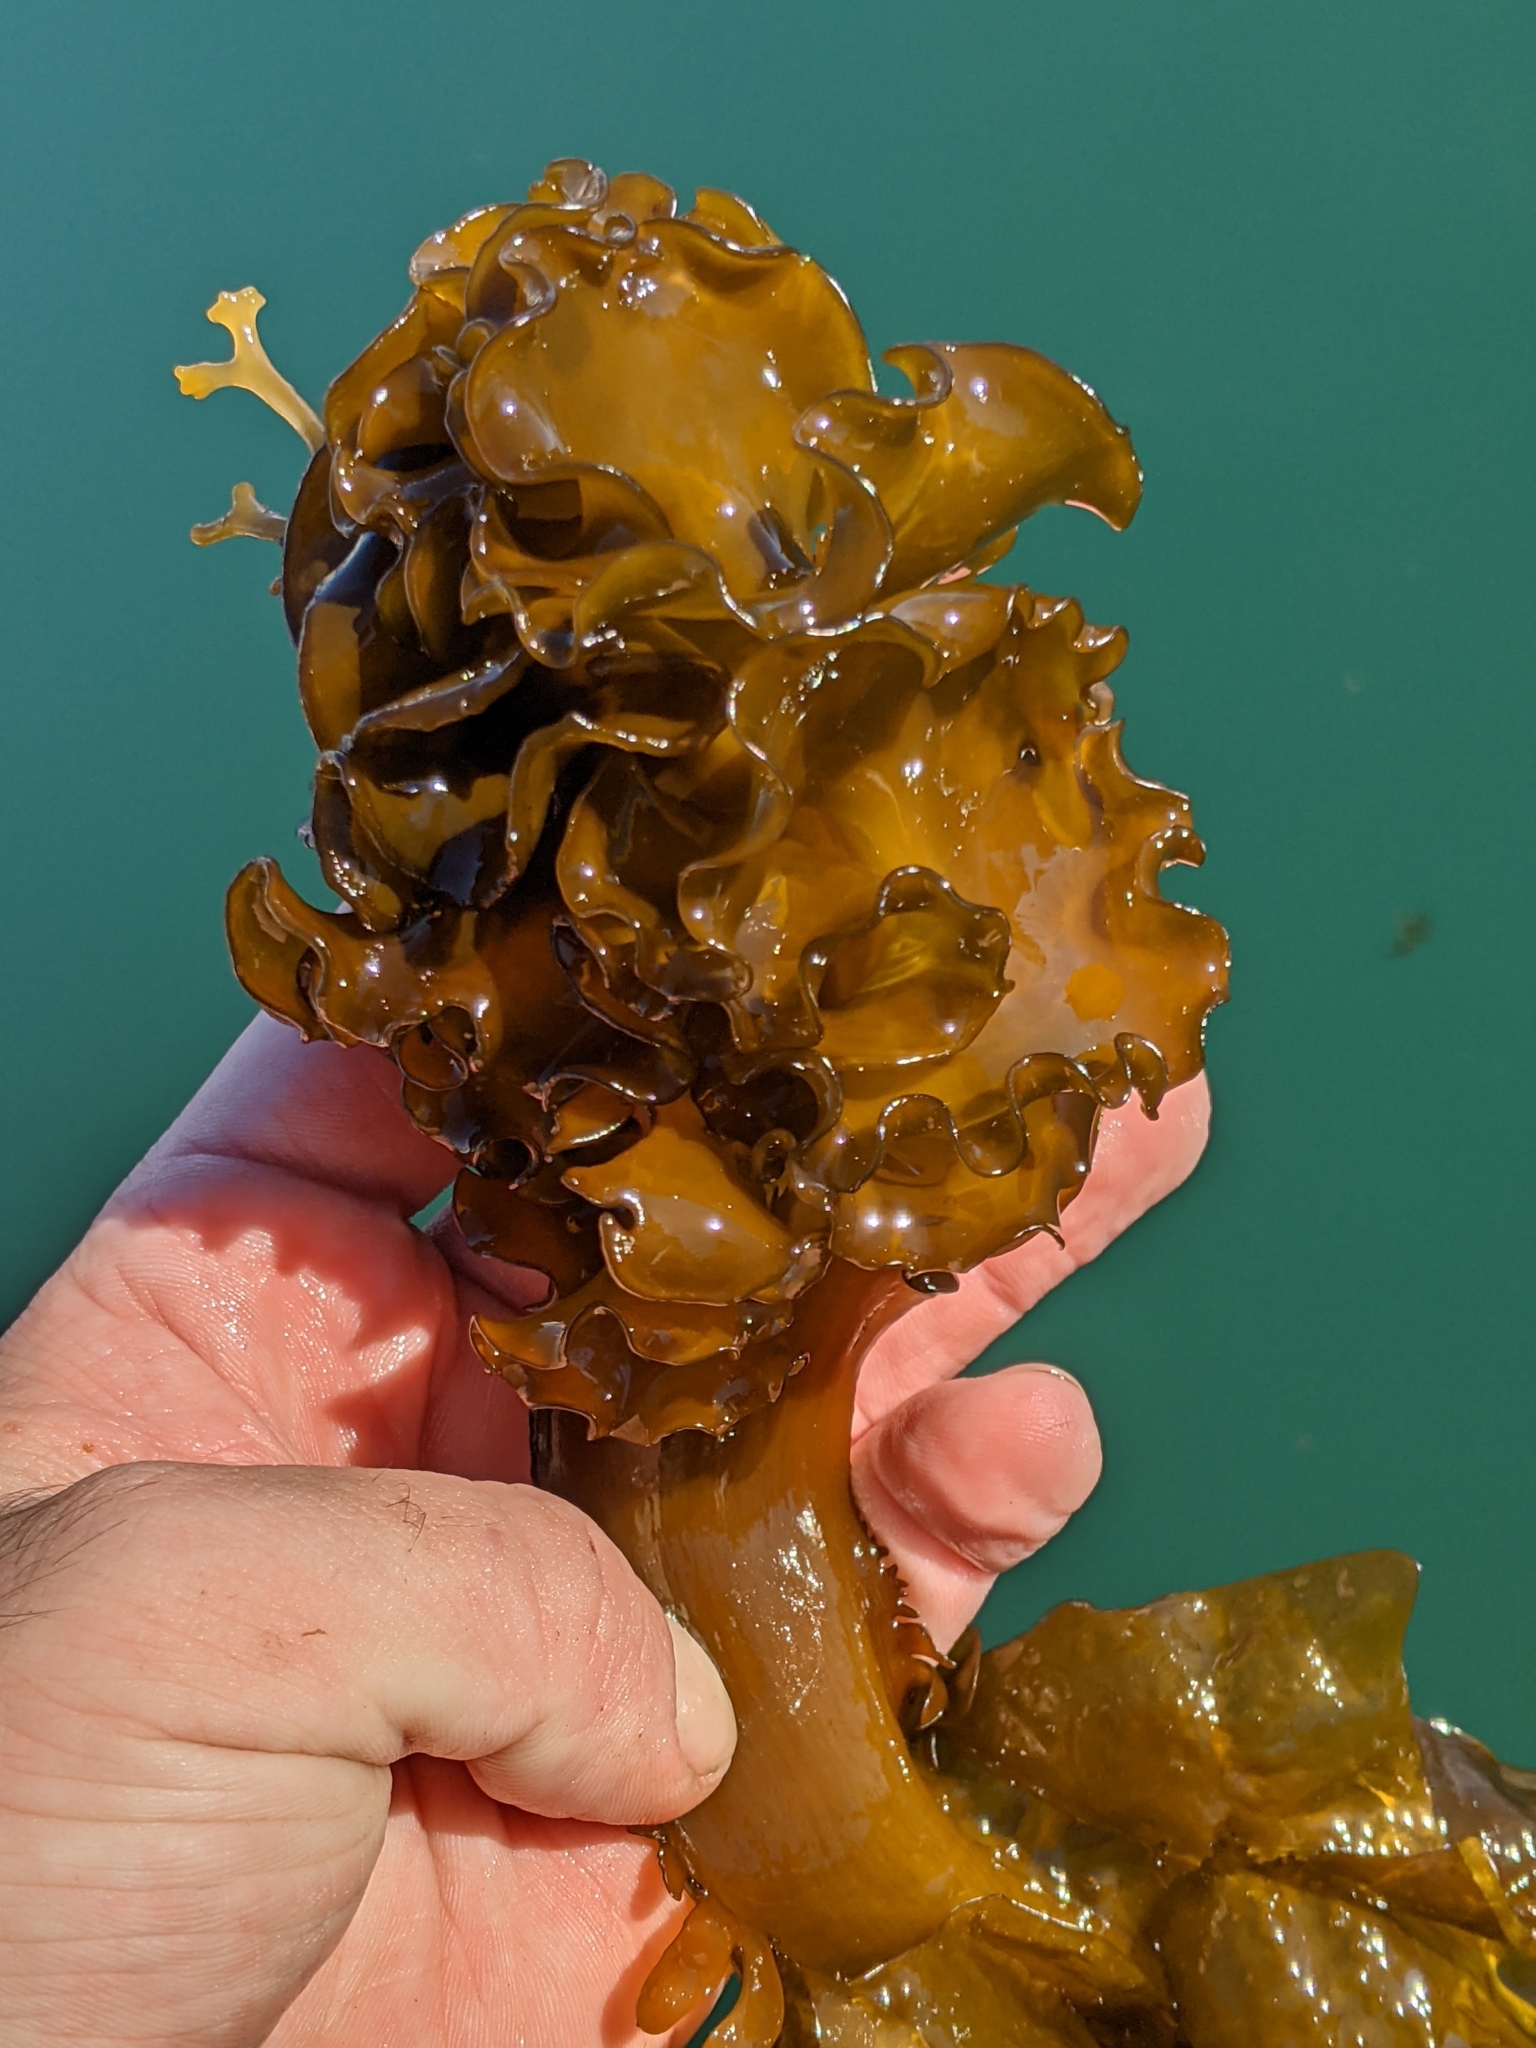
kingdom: Chromista
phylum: Ochrophyta
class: Phaeophyceae
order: Laminariales
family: Alariaceae
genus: Undaria
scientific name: Undaria pinnatifida
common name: Asian kelp
